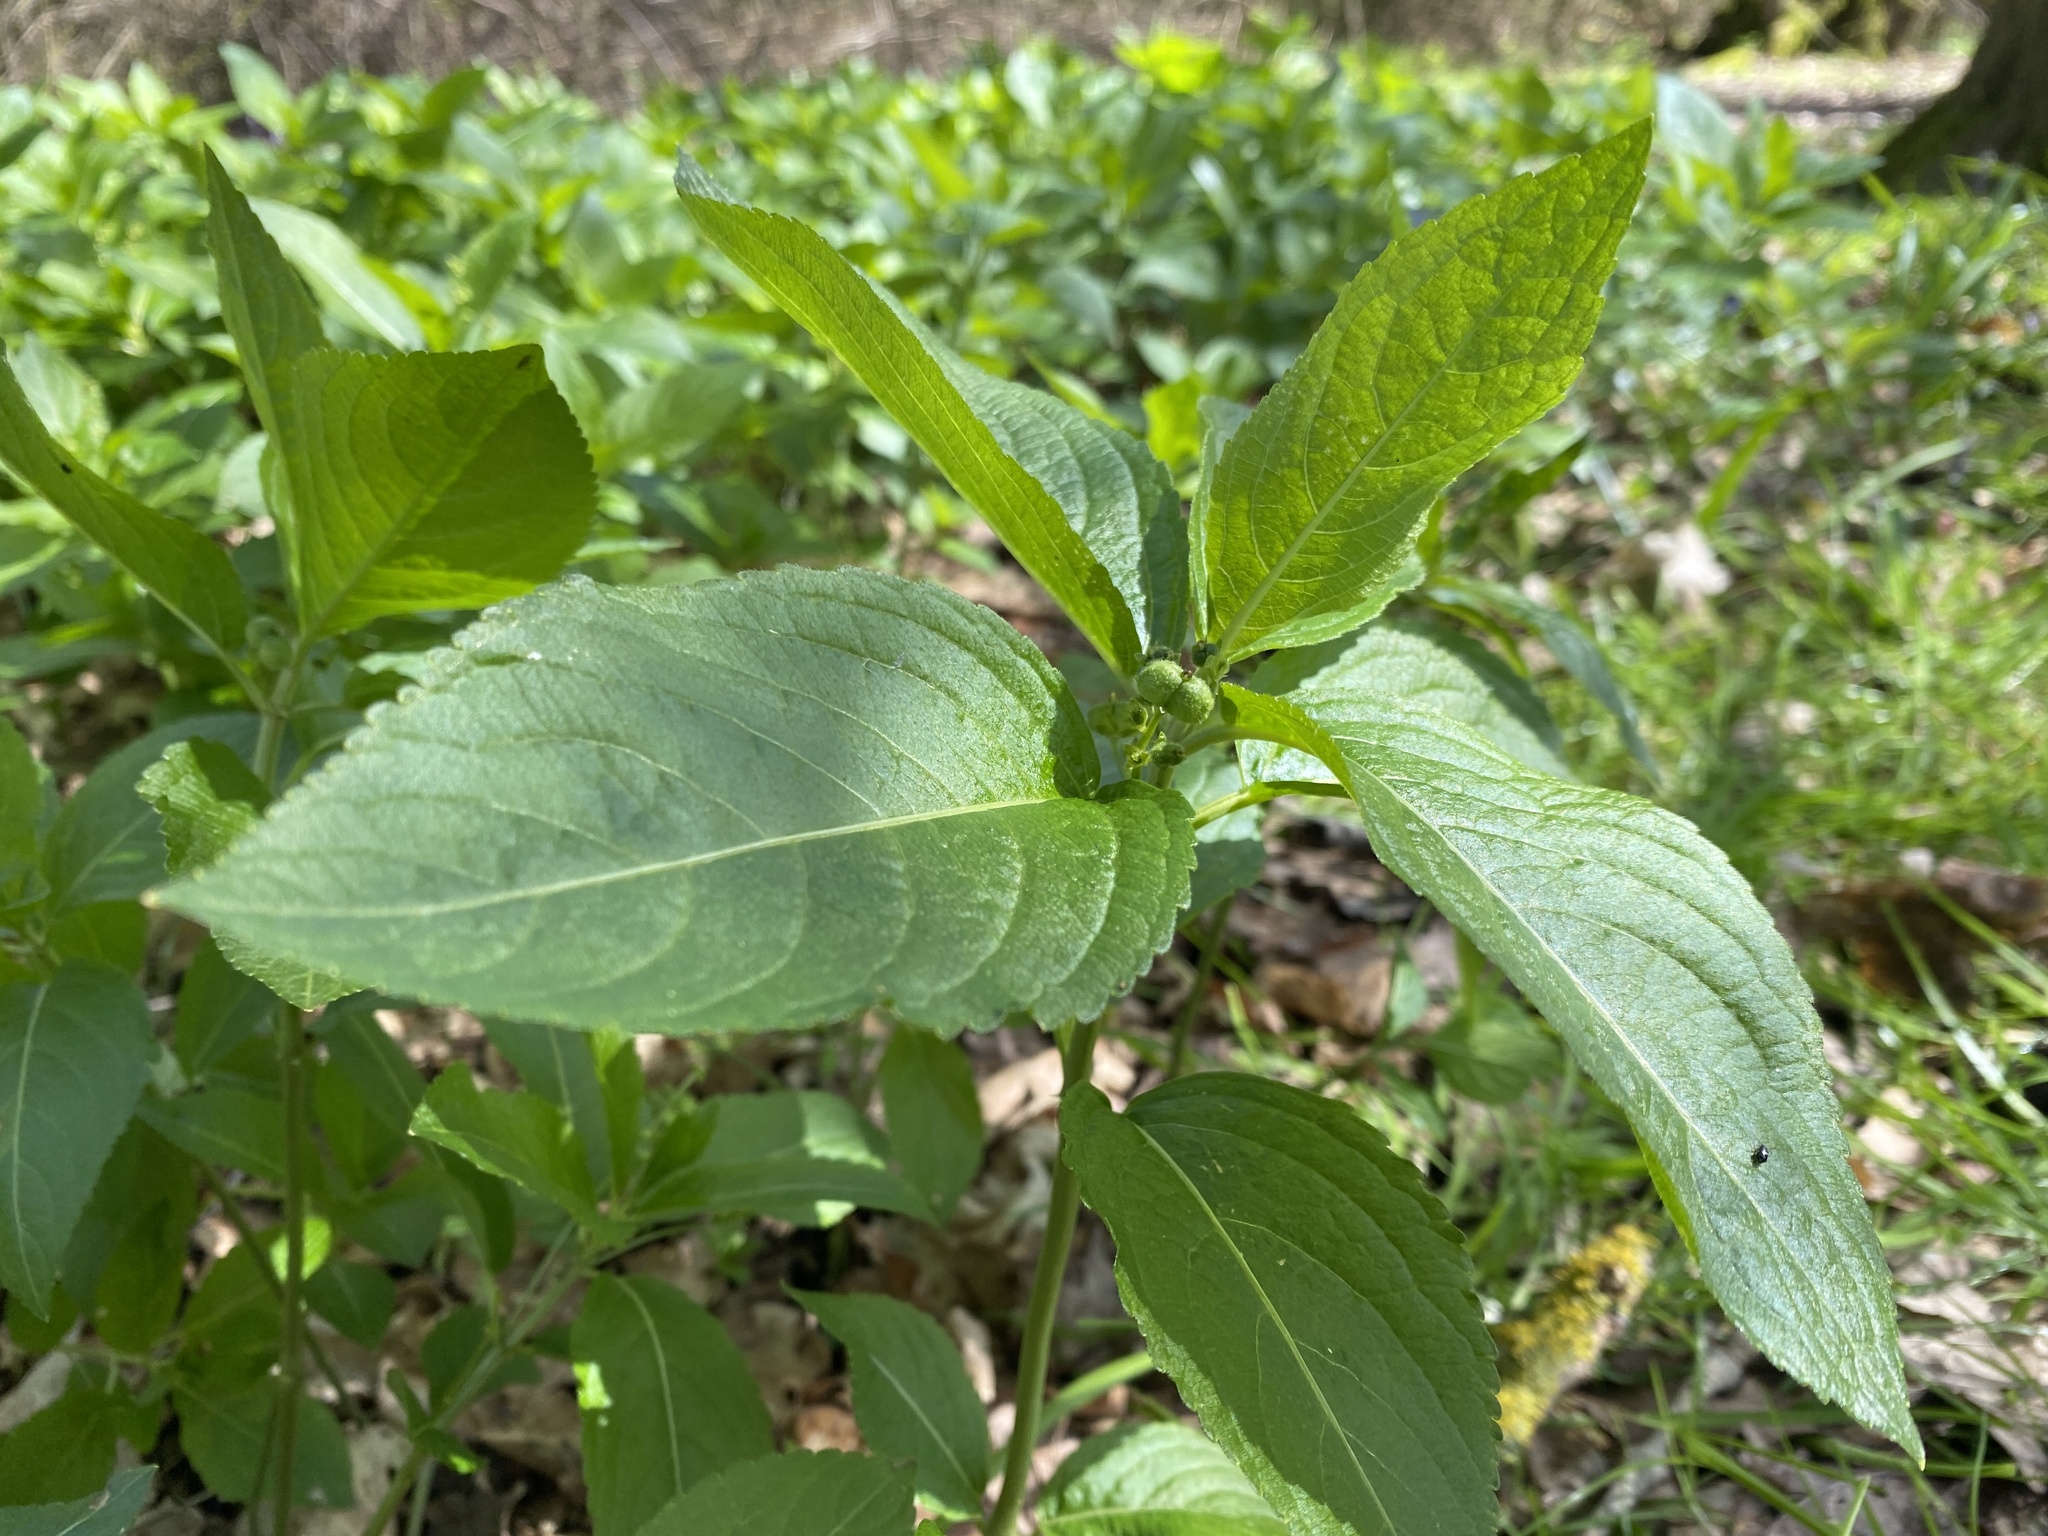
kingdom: Plantae
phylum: Tracheophyta
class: Magnoliopsida
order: Malpighiales
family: Euphorbiaceae
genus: Mercurialis
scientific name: Mercurialis perennis
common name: Dog mercury
